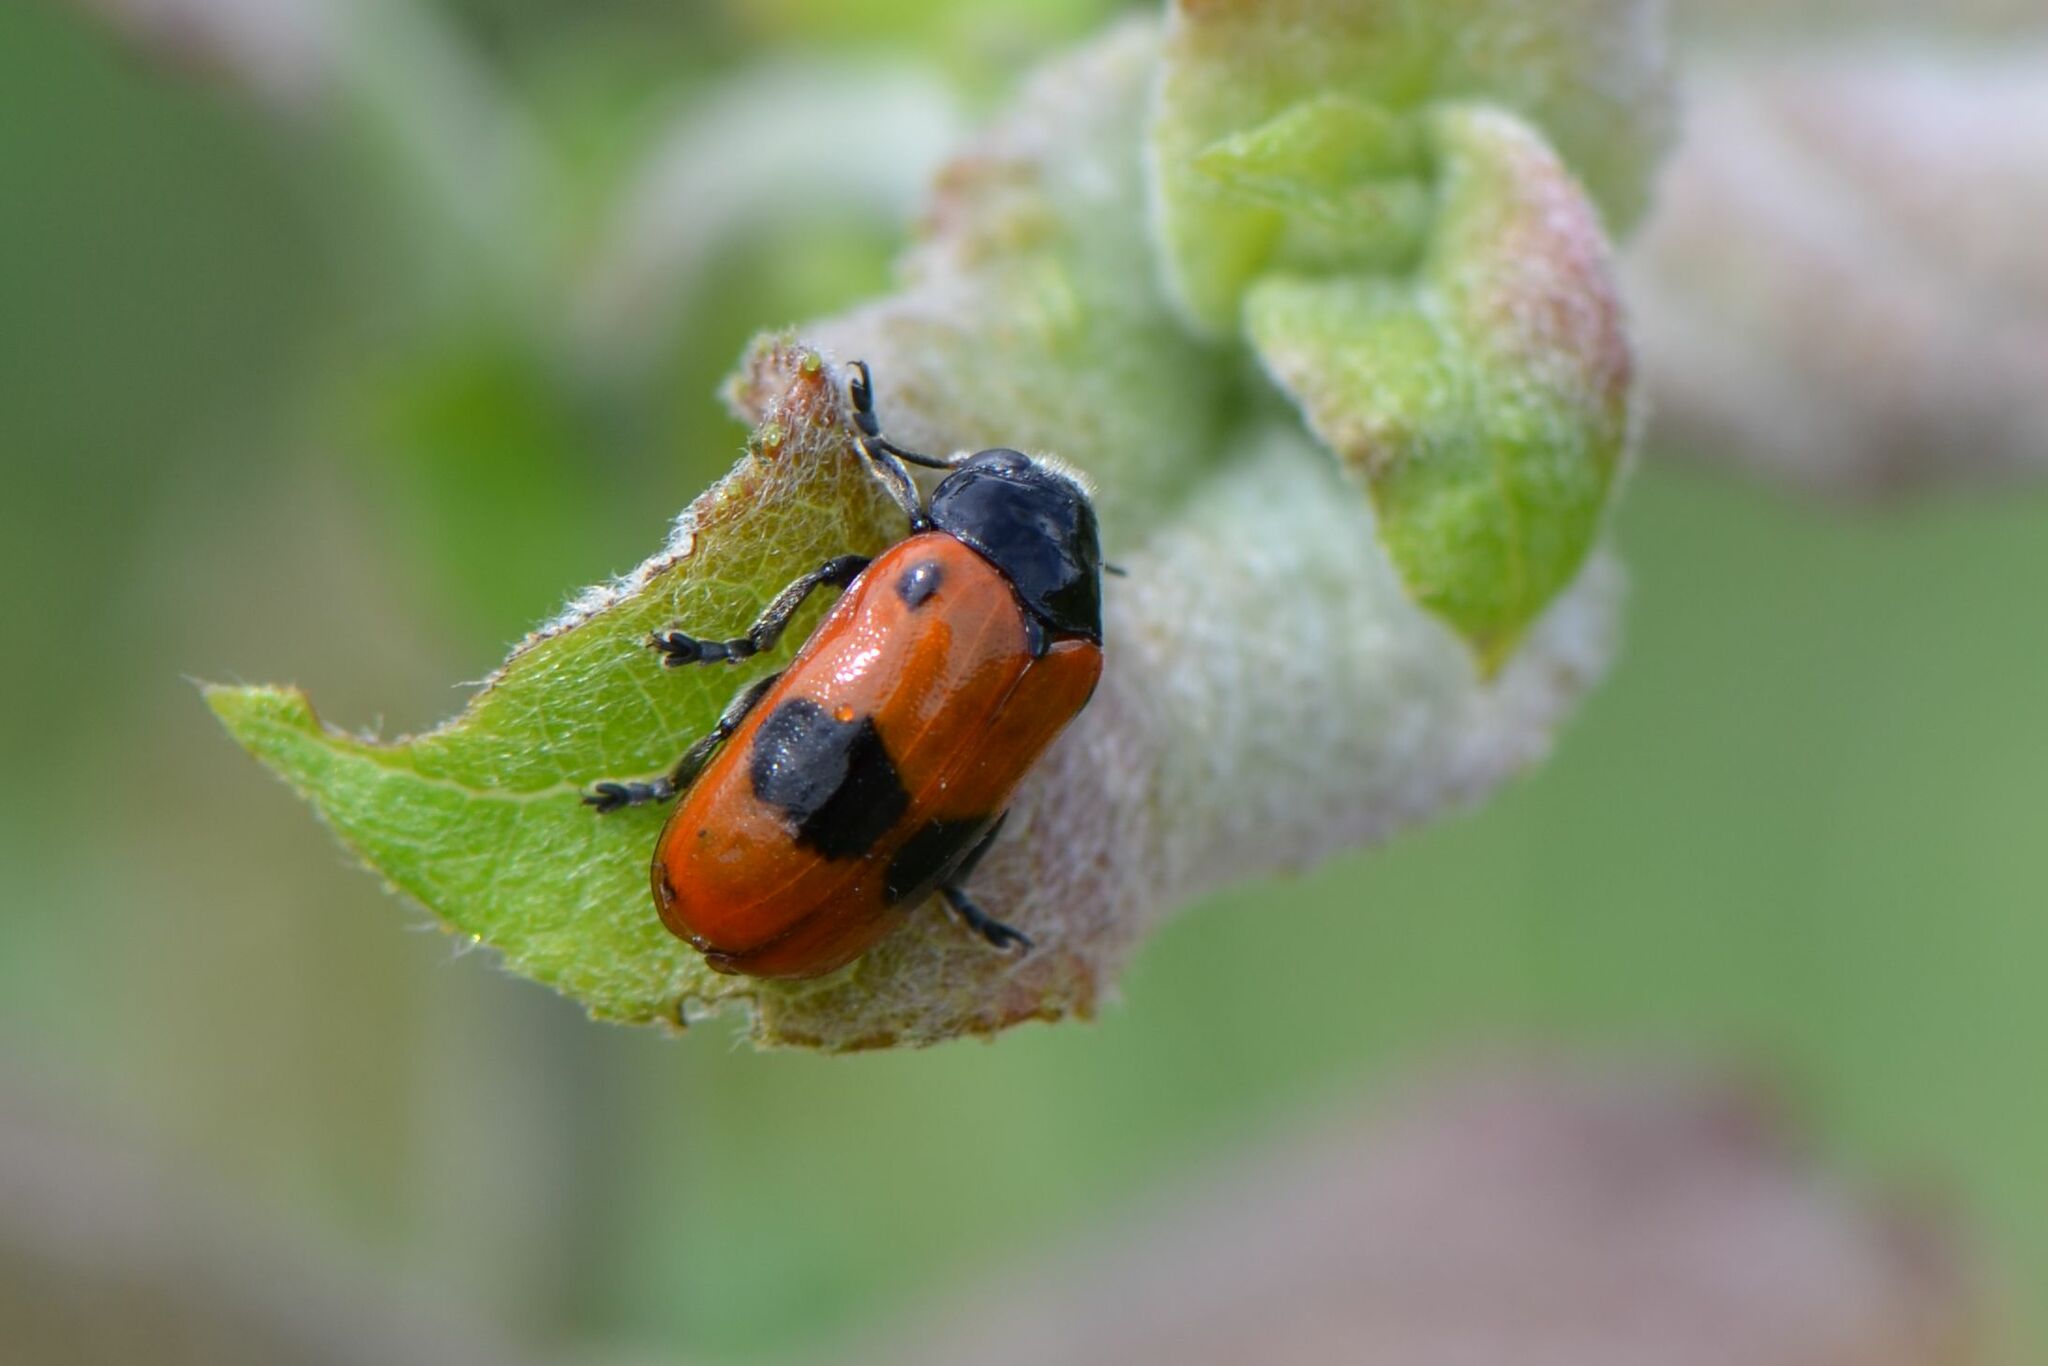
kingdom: Animalia
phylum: Arthropoda
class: Insecta
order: Coleoptera
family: Chrysomelidae
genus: Clytra
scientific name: Clytra laeviuscula
